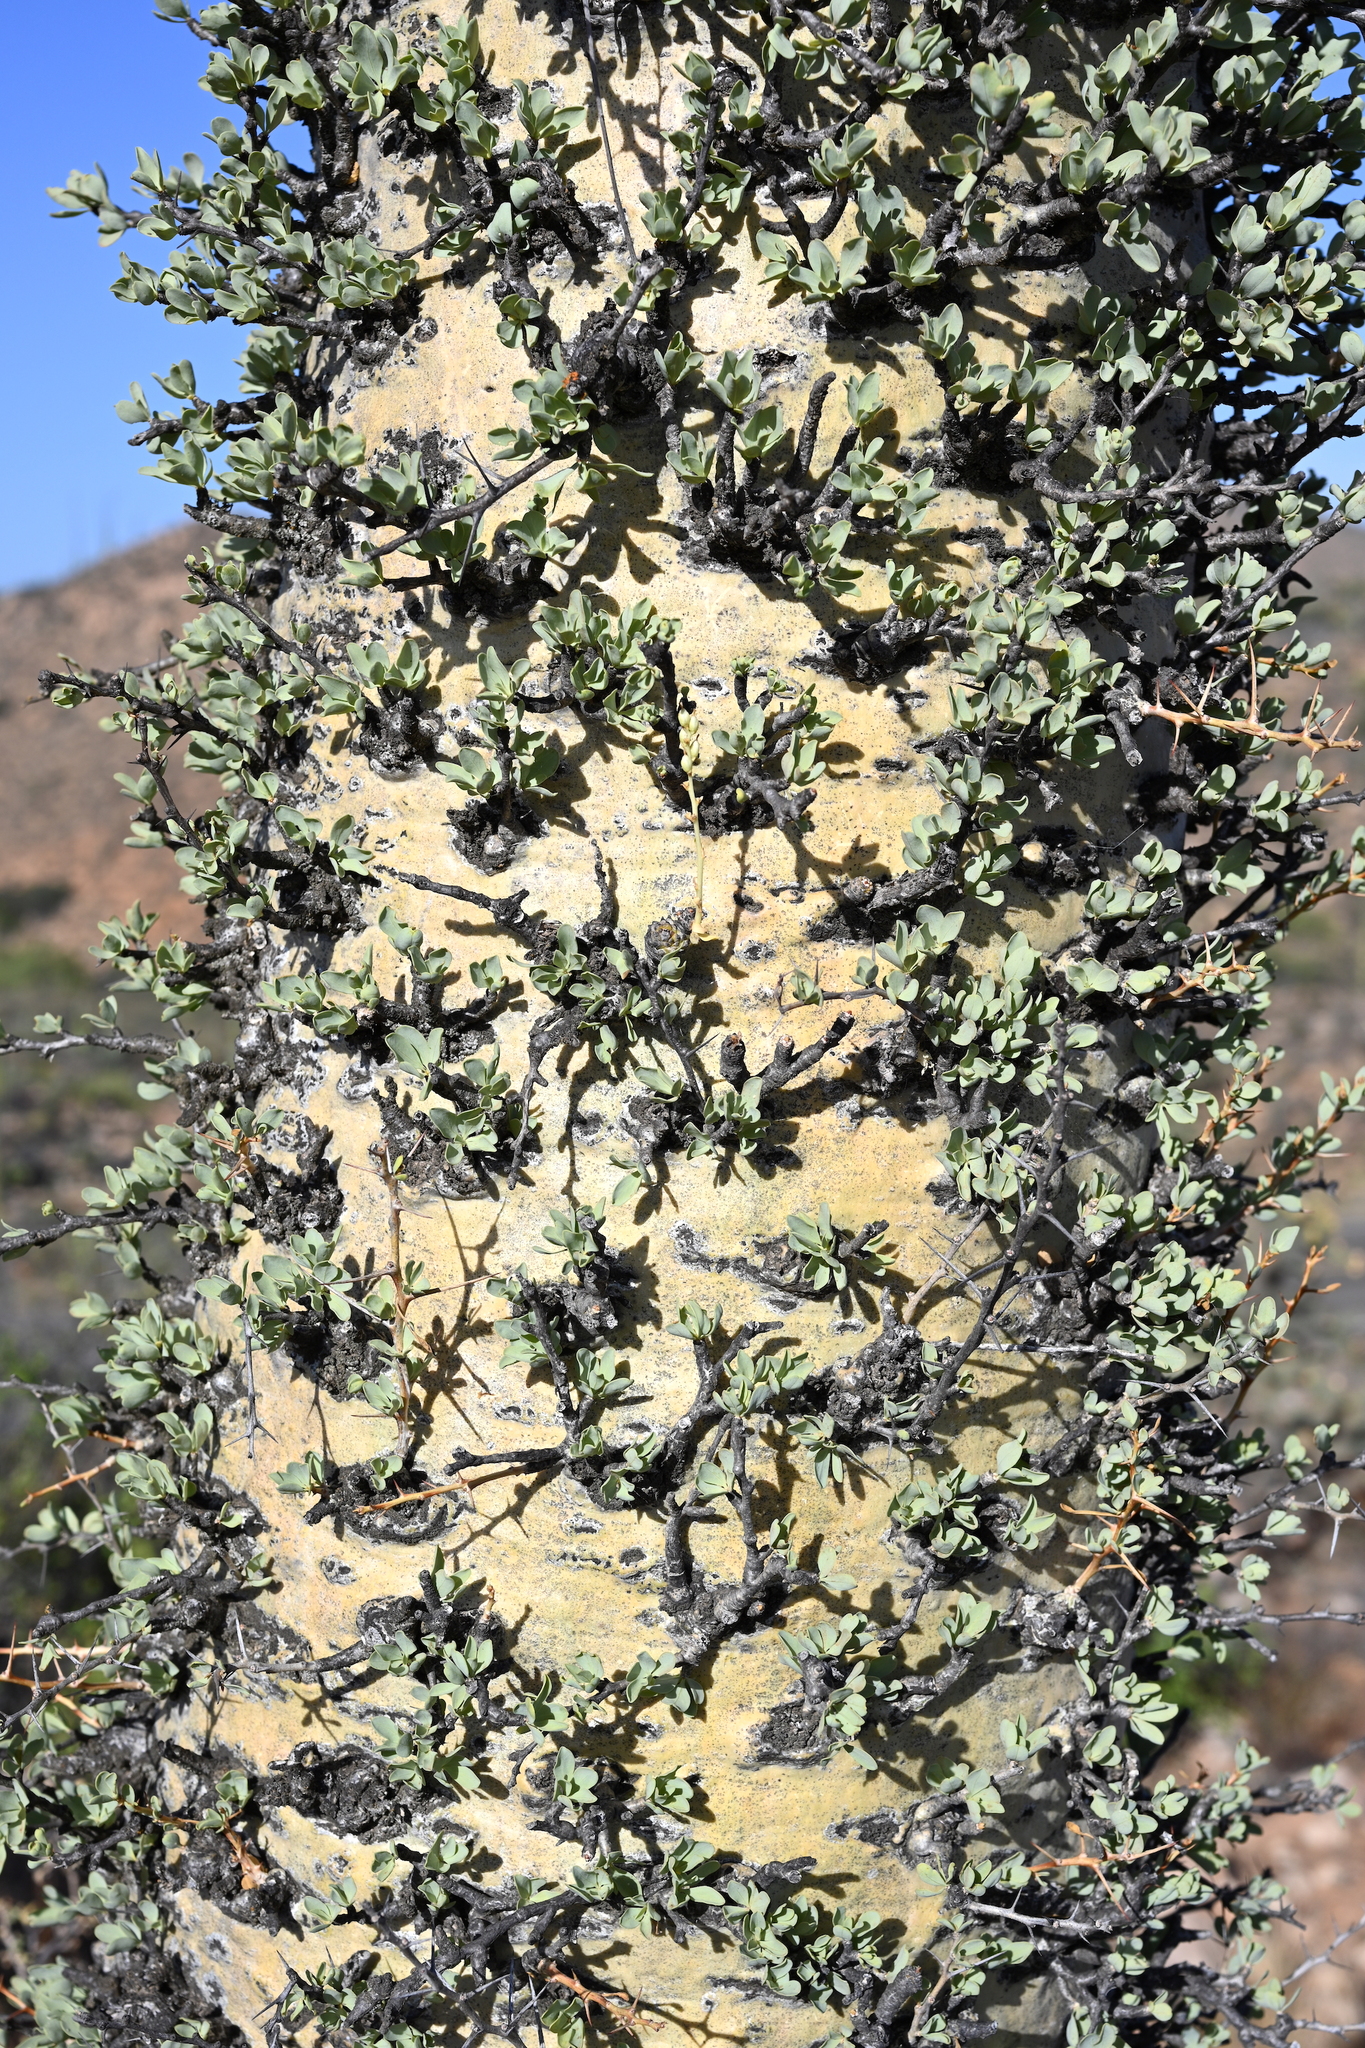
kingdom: Plantae
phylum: Tracheophyta
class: Magnoliopsida
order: Ericales
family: Fouquieriaceae
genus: Fouquieria
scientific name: Fouquieria columnaris
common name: Boojumtree
